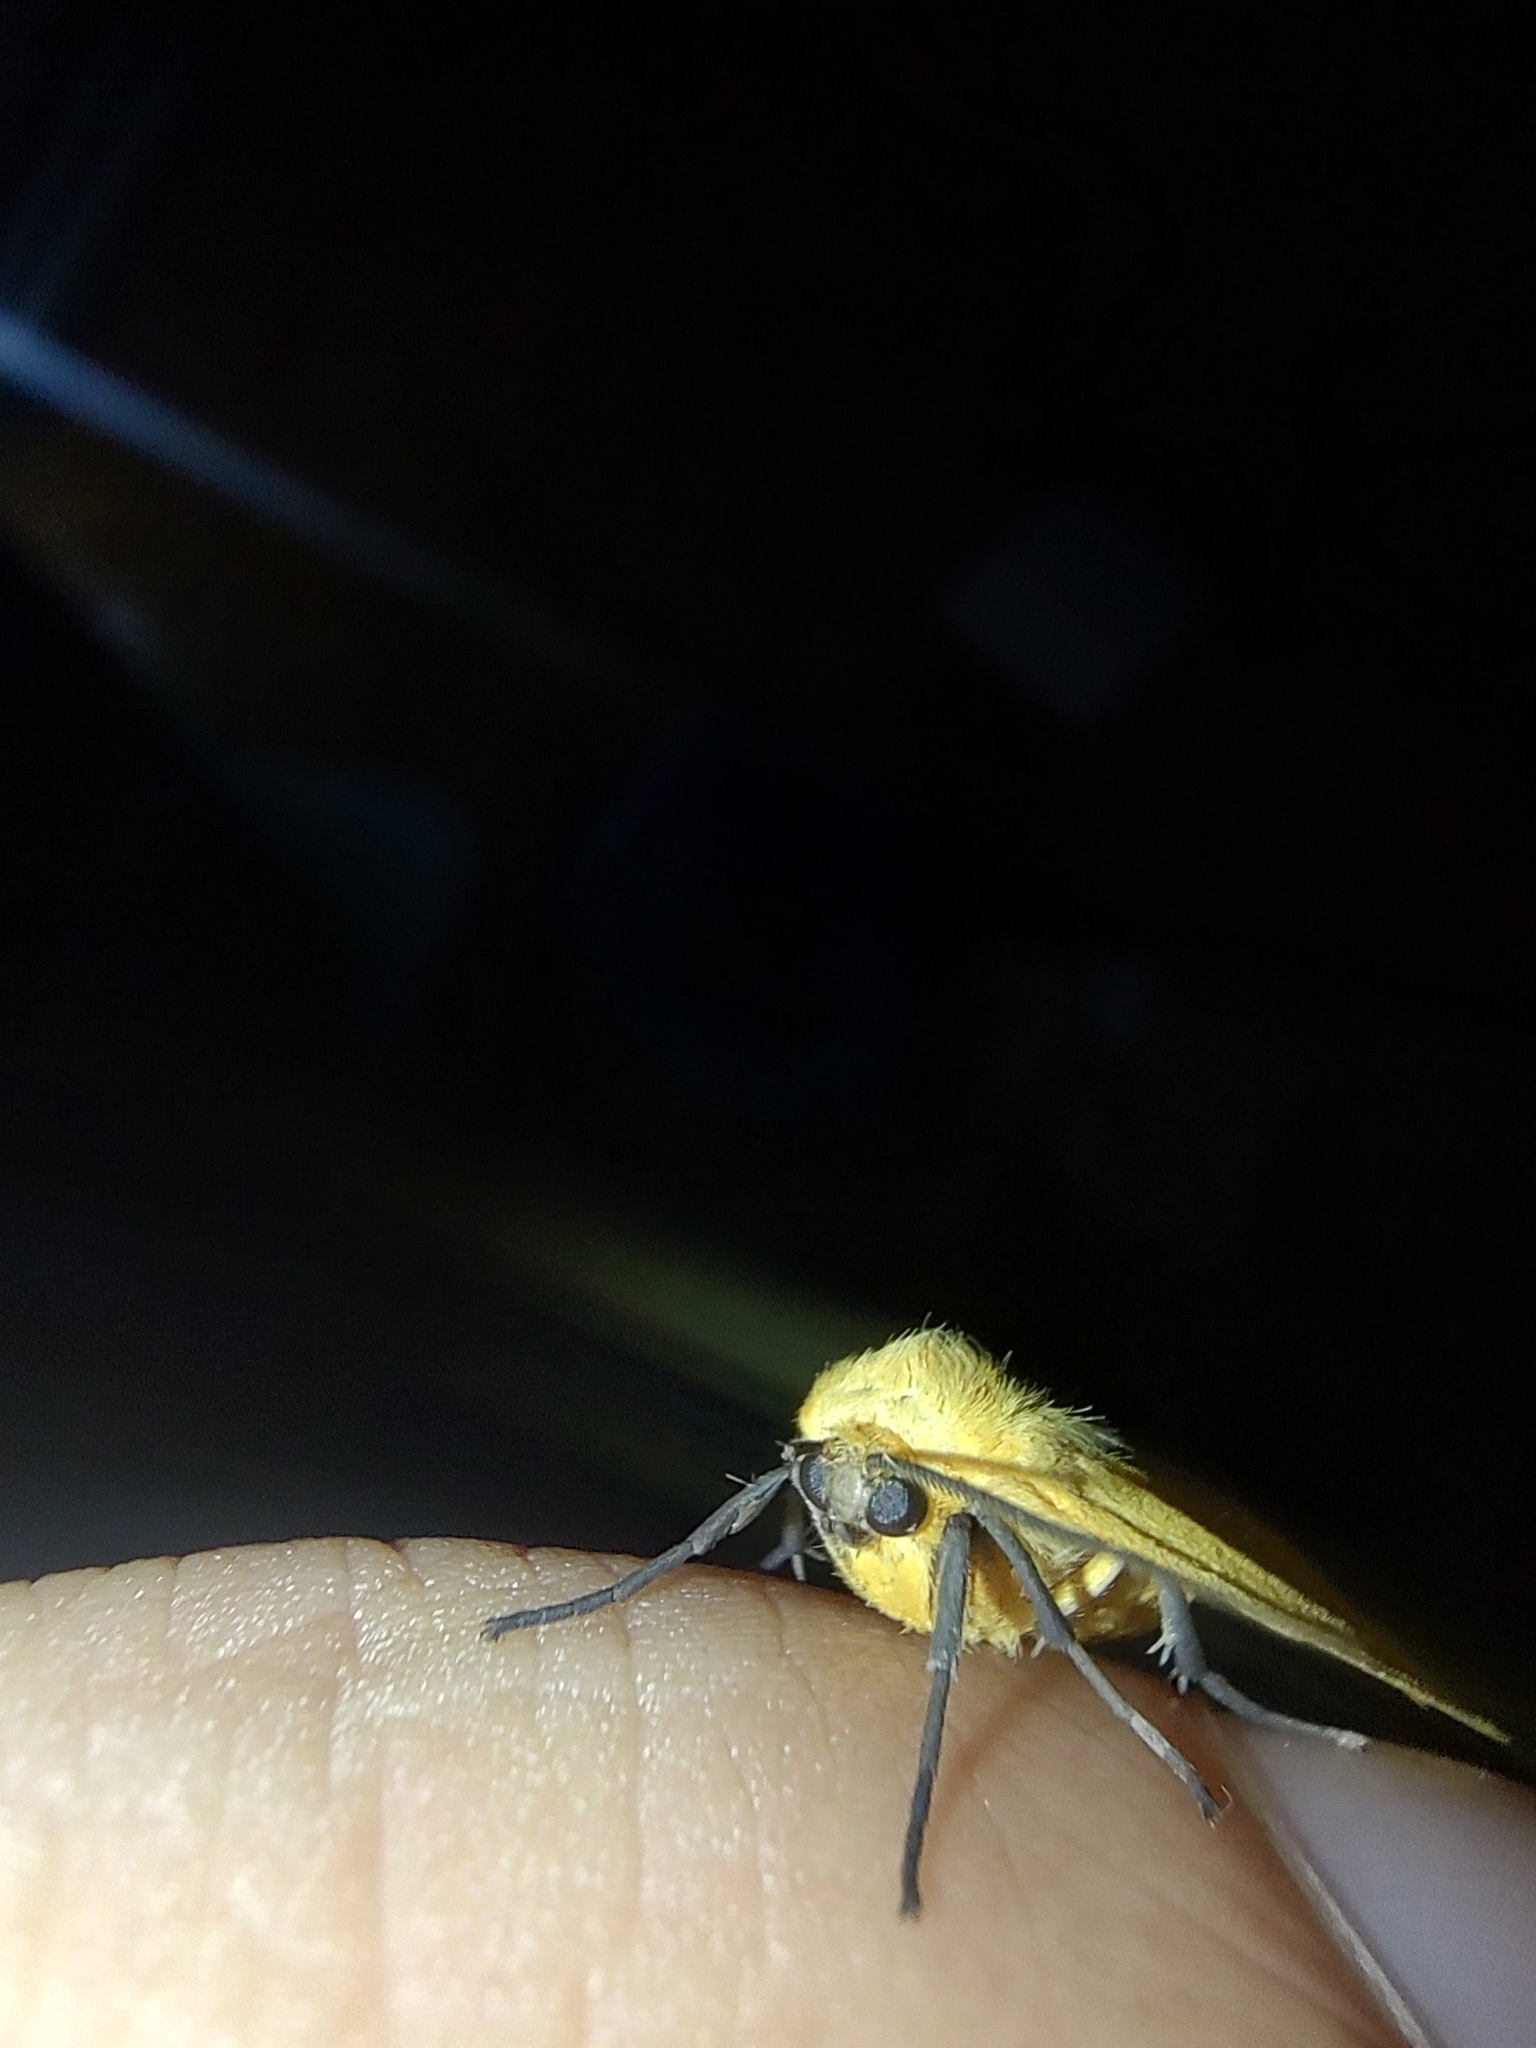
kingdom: Animalia
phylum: Arthropoda
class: Insecta
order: Lepidoptera
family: Erebidae
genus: Pareuchaetes
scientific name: Pareuchaetes aurata
